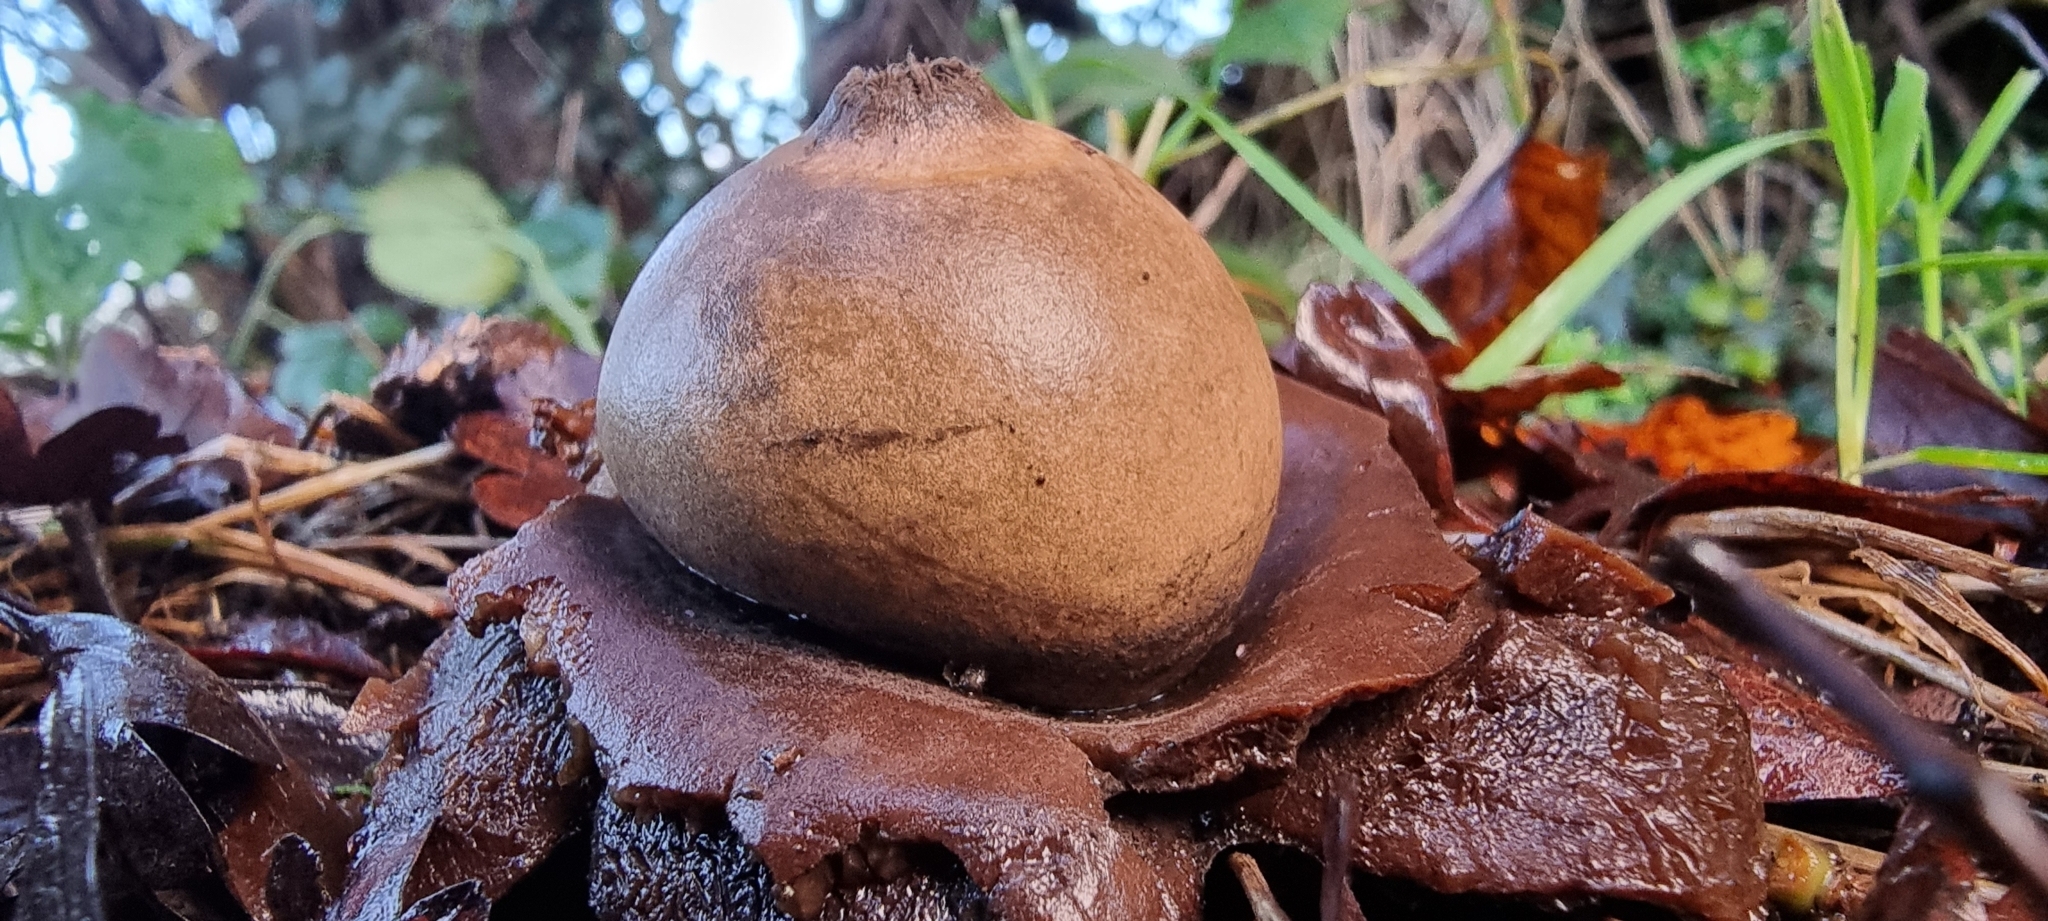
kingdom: Fungi
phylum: Basidiomycota
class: Agaricomycetes
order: Geastrales
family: Geastraceae
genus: Geastrum
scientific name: Geastrum triplex
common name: Collared earthstar
